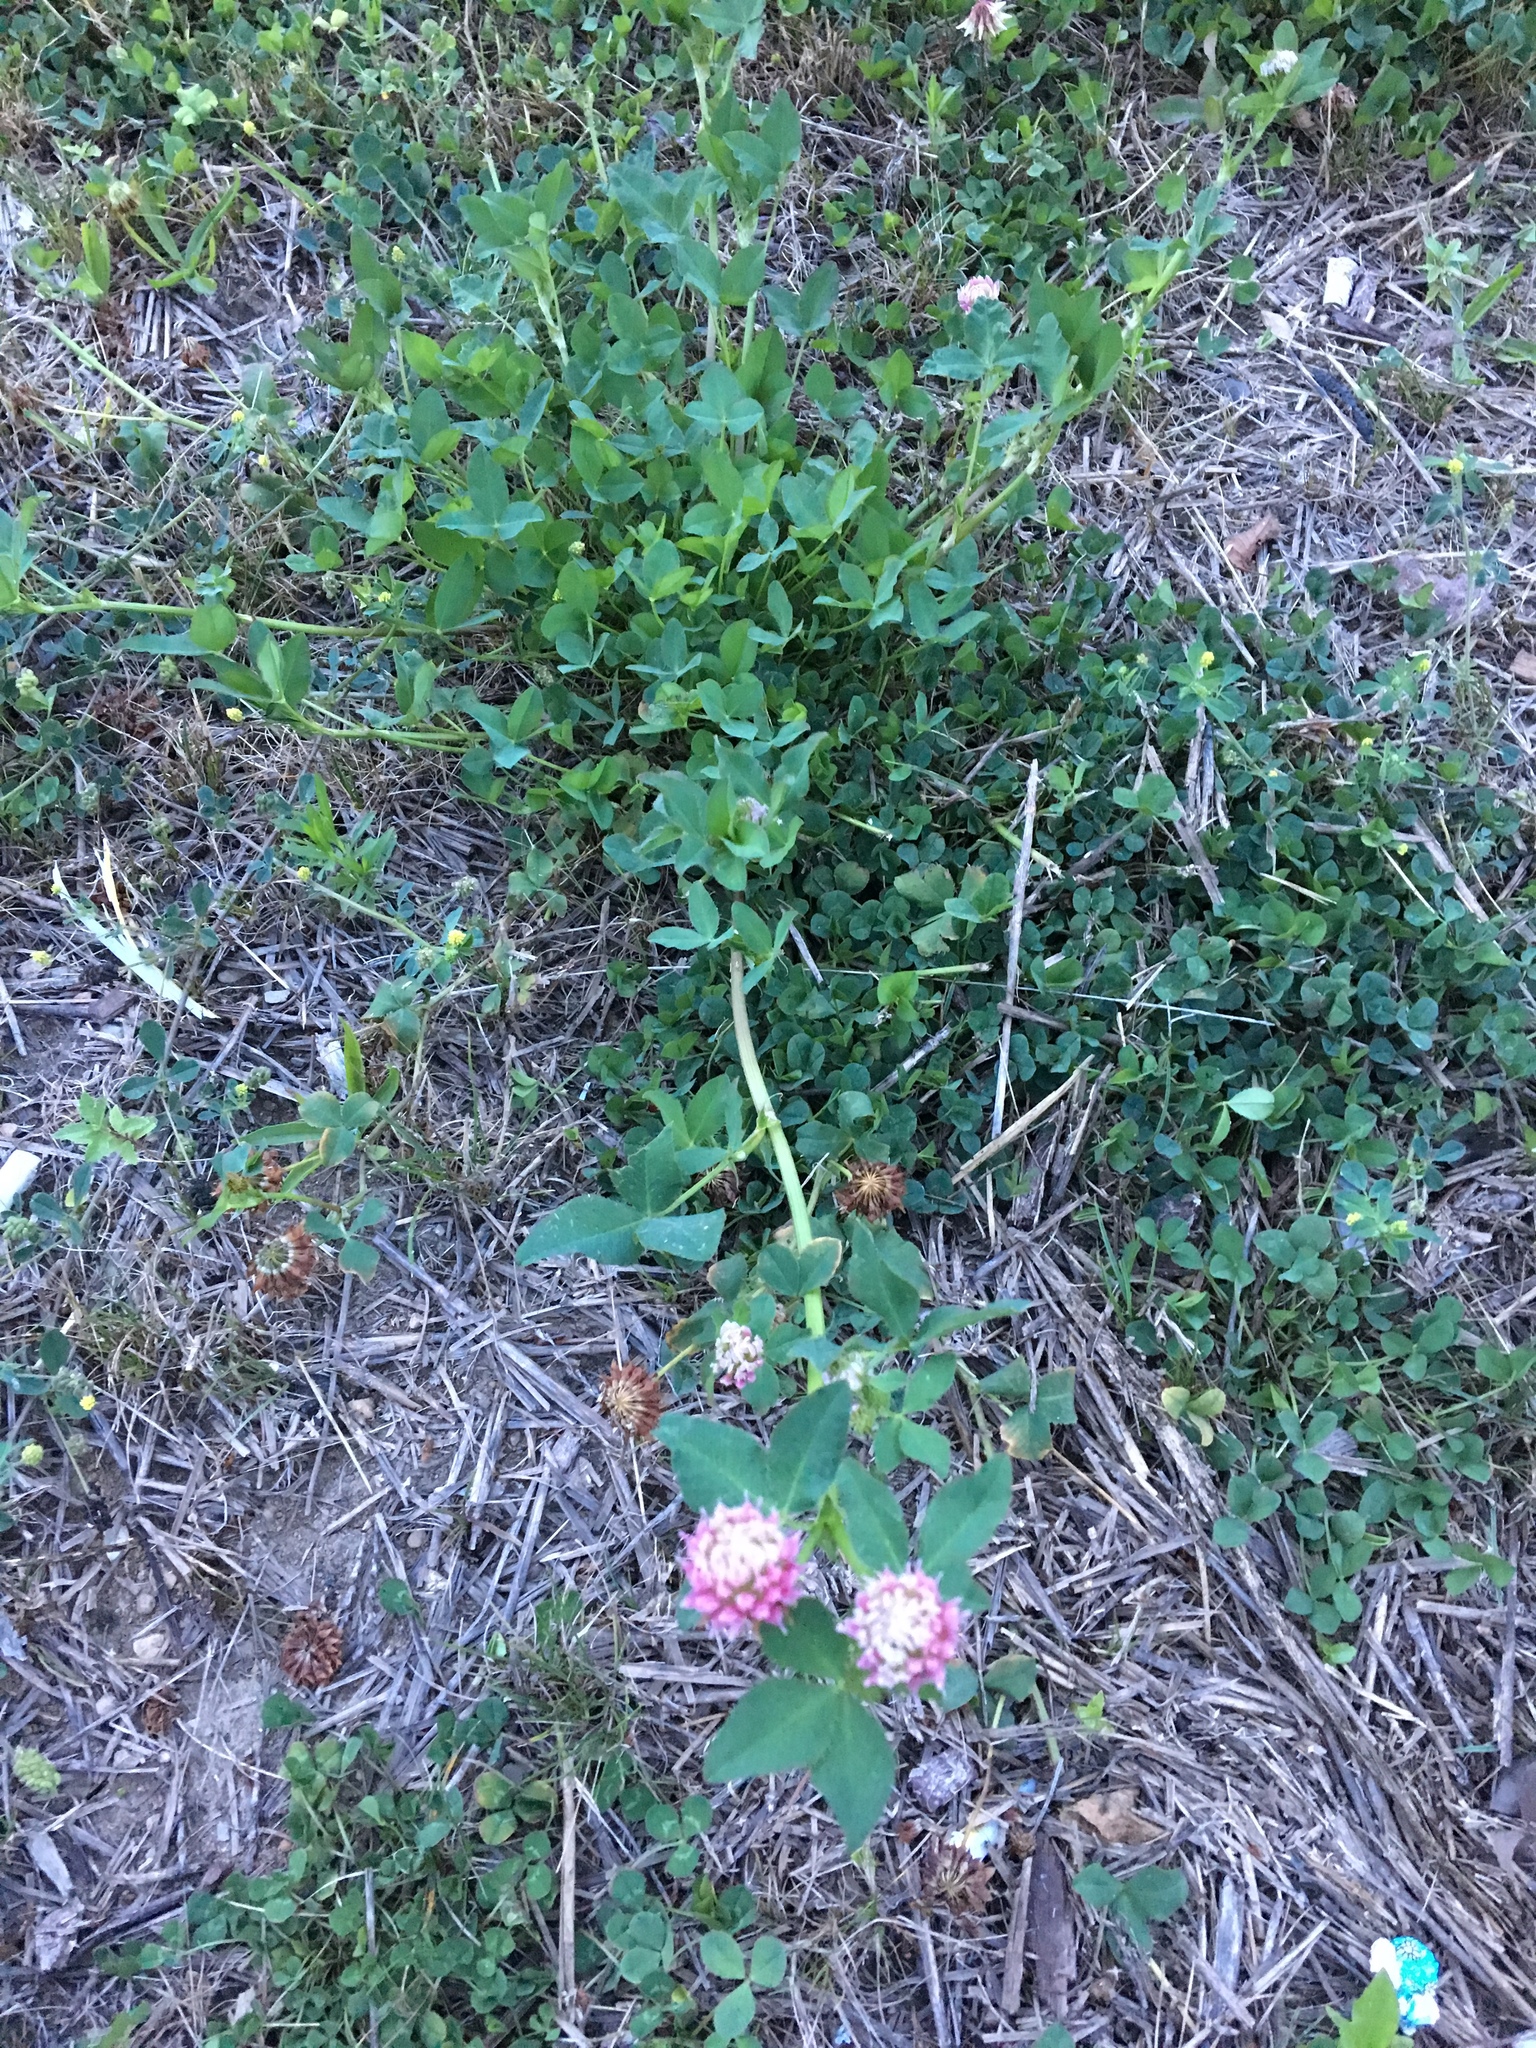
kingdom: Plantae
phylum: Tracheophyta
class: Magnoliopsida
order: Fabales
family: Fabaceae
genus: Trifolium
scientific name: Trifolium hybridum
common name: Alsike clover
